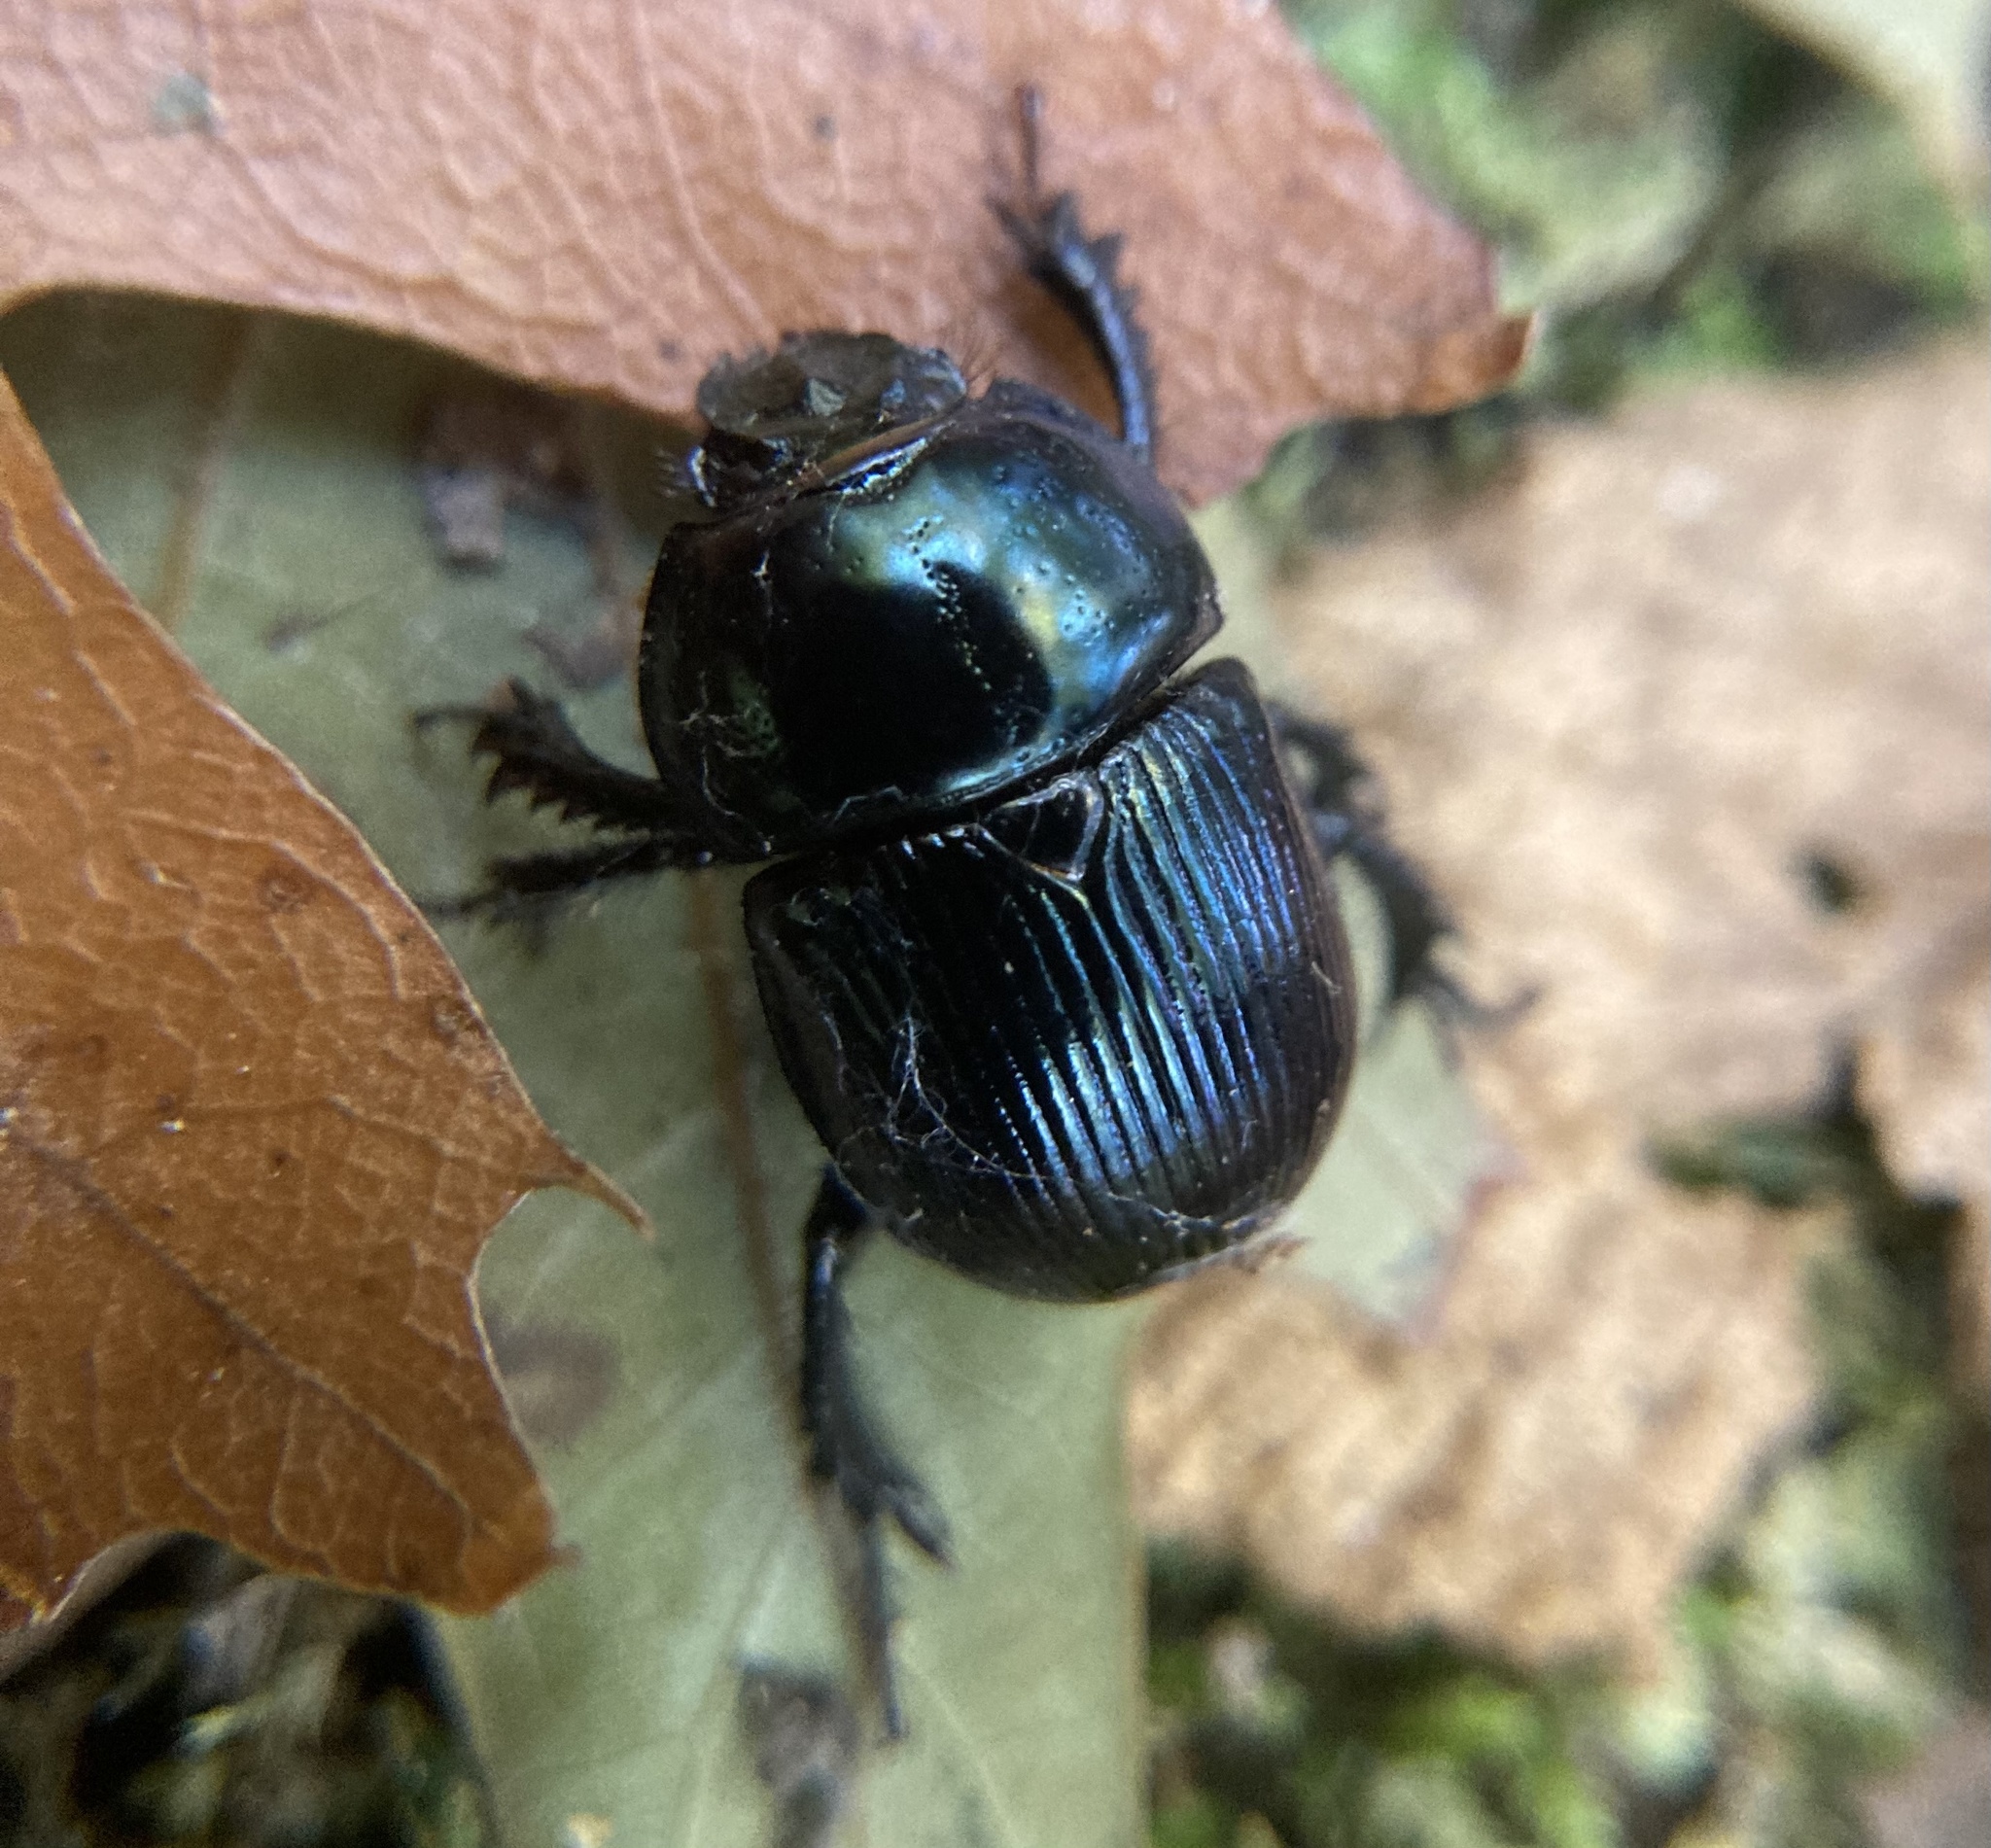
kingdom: Animalia
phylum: Arthropoda
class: Insecta
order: Coleoptera
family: Geotrupidae
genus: Anoplotrupes
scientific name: Anoplotrupes balyi
